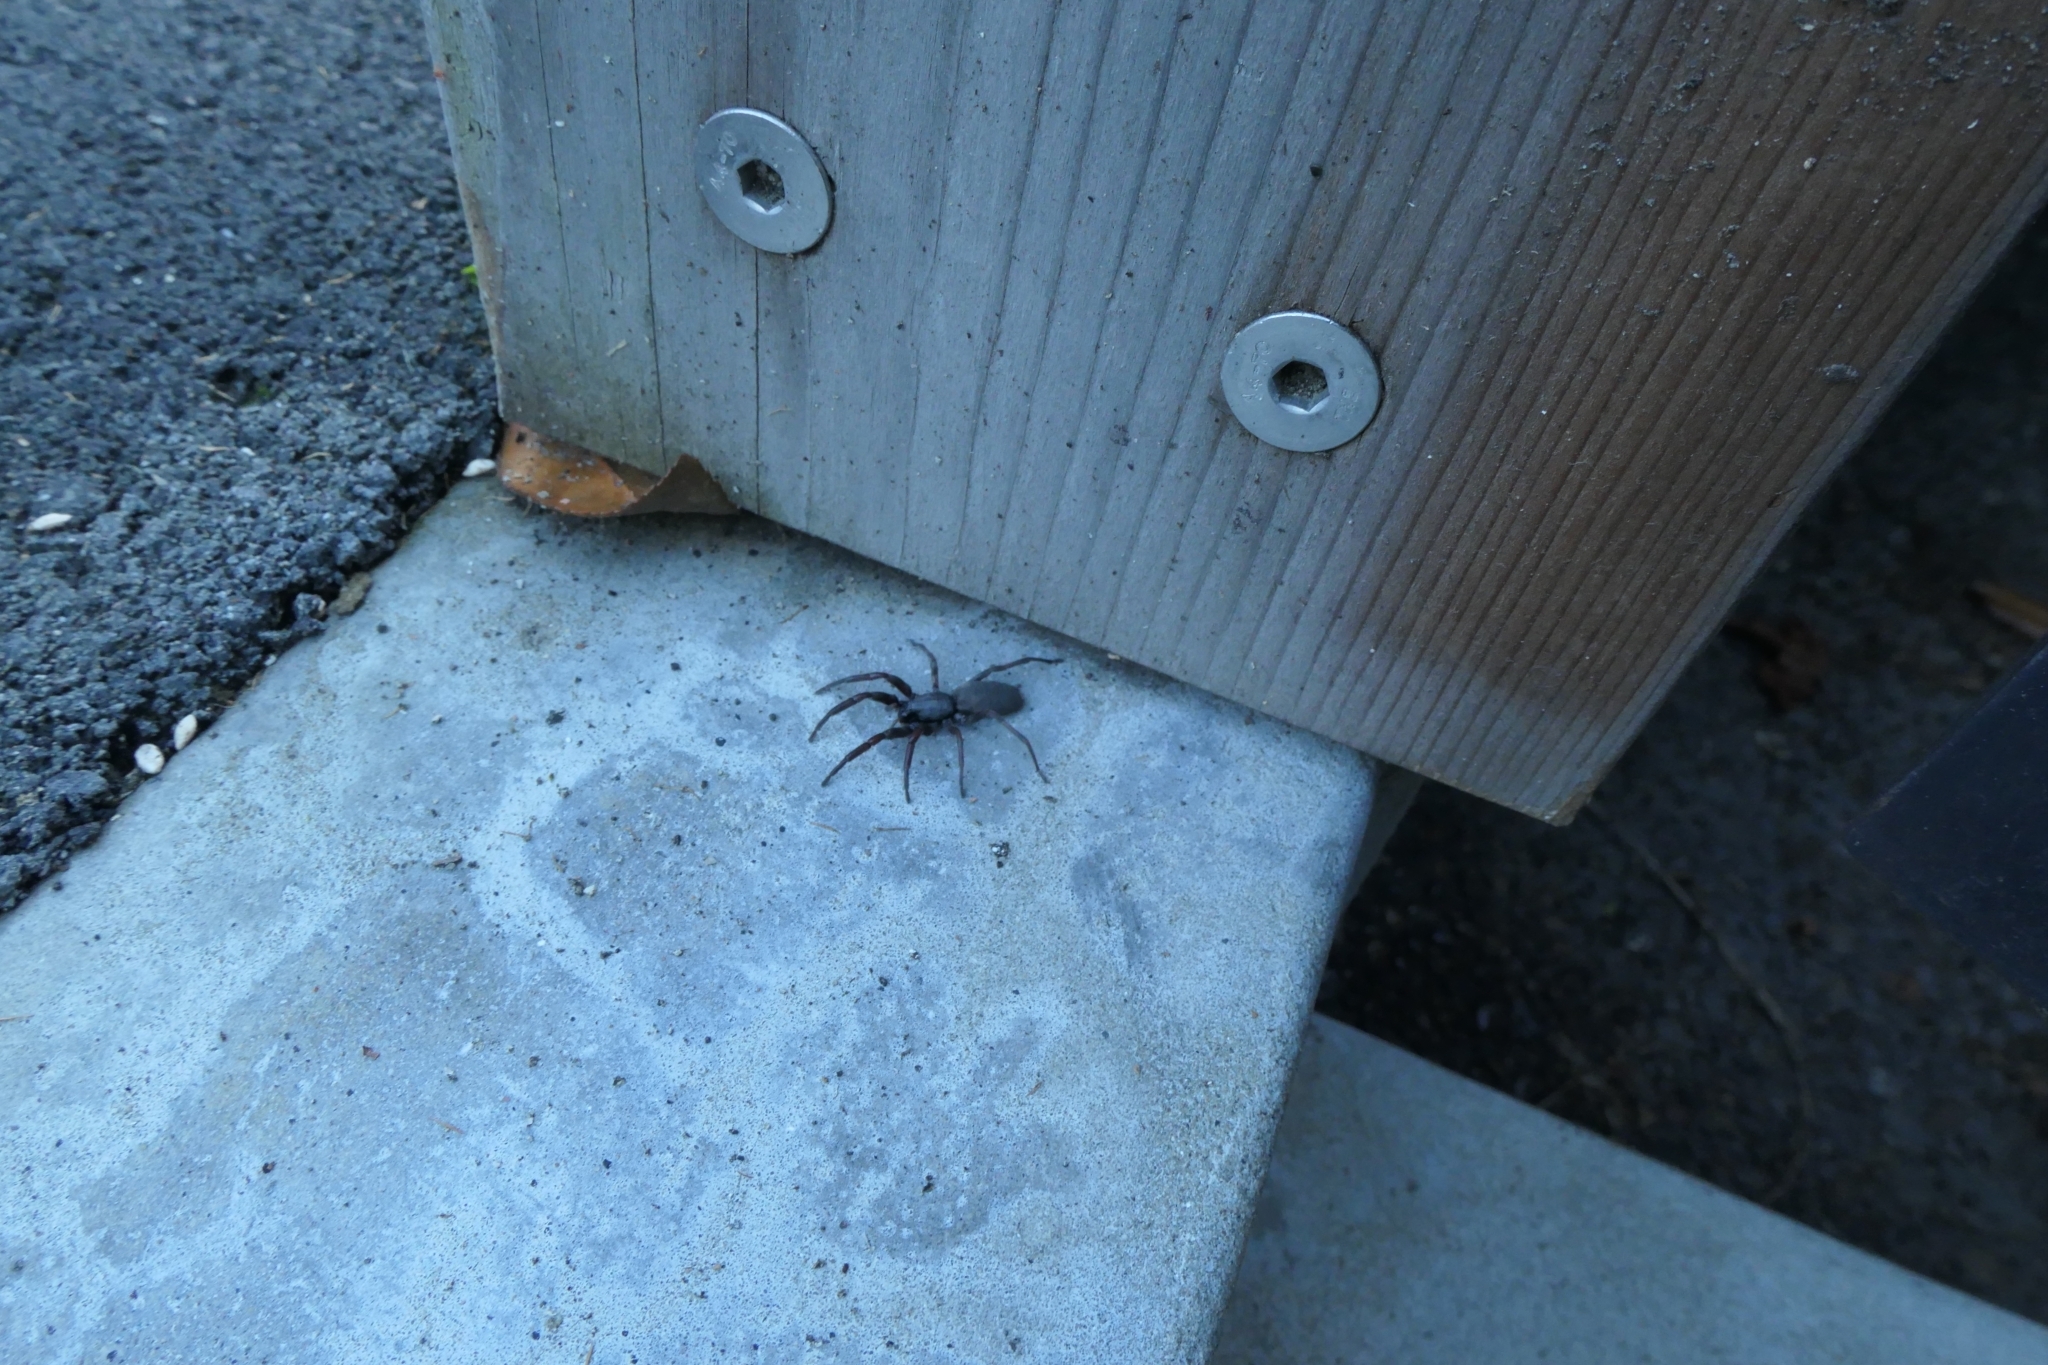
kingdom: Animalia
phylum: Arthropoda
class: Arachnida
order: Araneae
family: Lamponidae
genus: Lampona
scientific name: Lampona cylindrata
